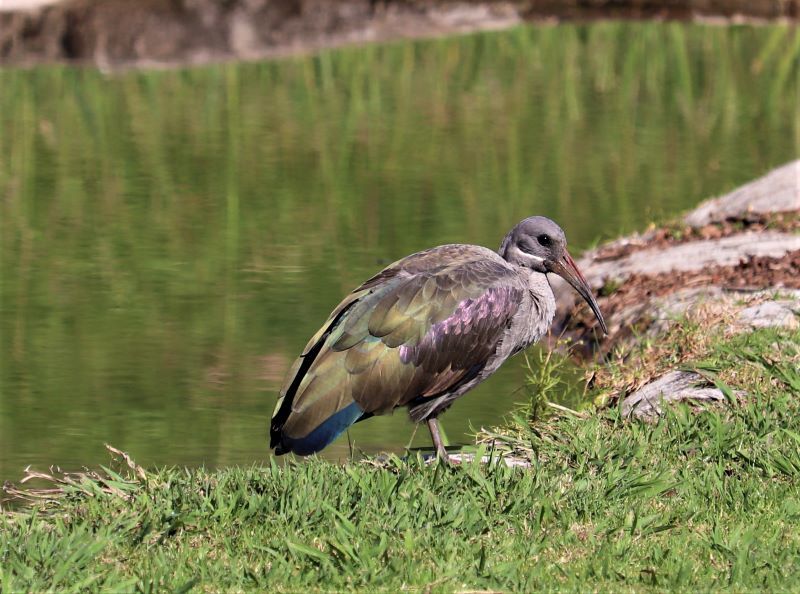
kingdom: Animalia
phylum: Chordata
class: Aves
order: Pelecaniformes
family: Threskiornithidae
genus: Bostrychia
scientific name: Bostrychia hagedash
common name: Hadada ibis
